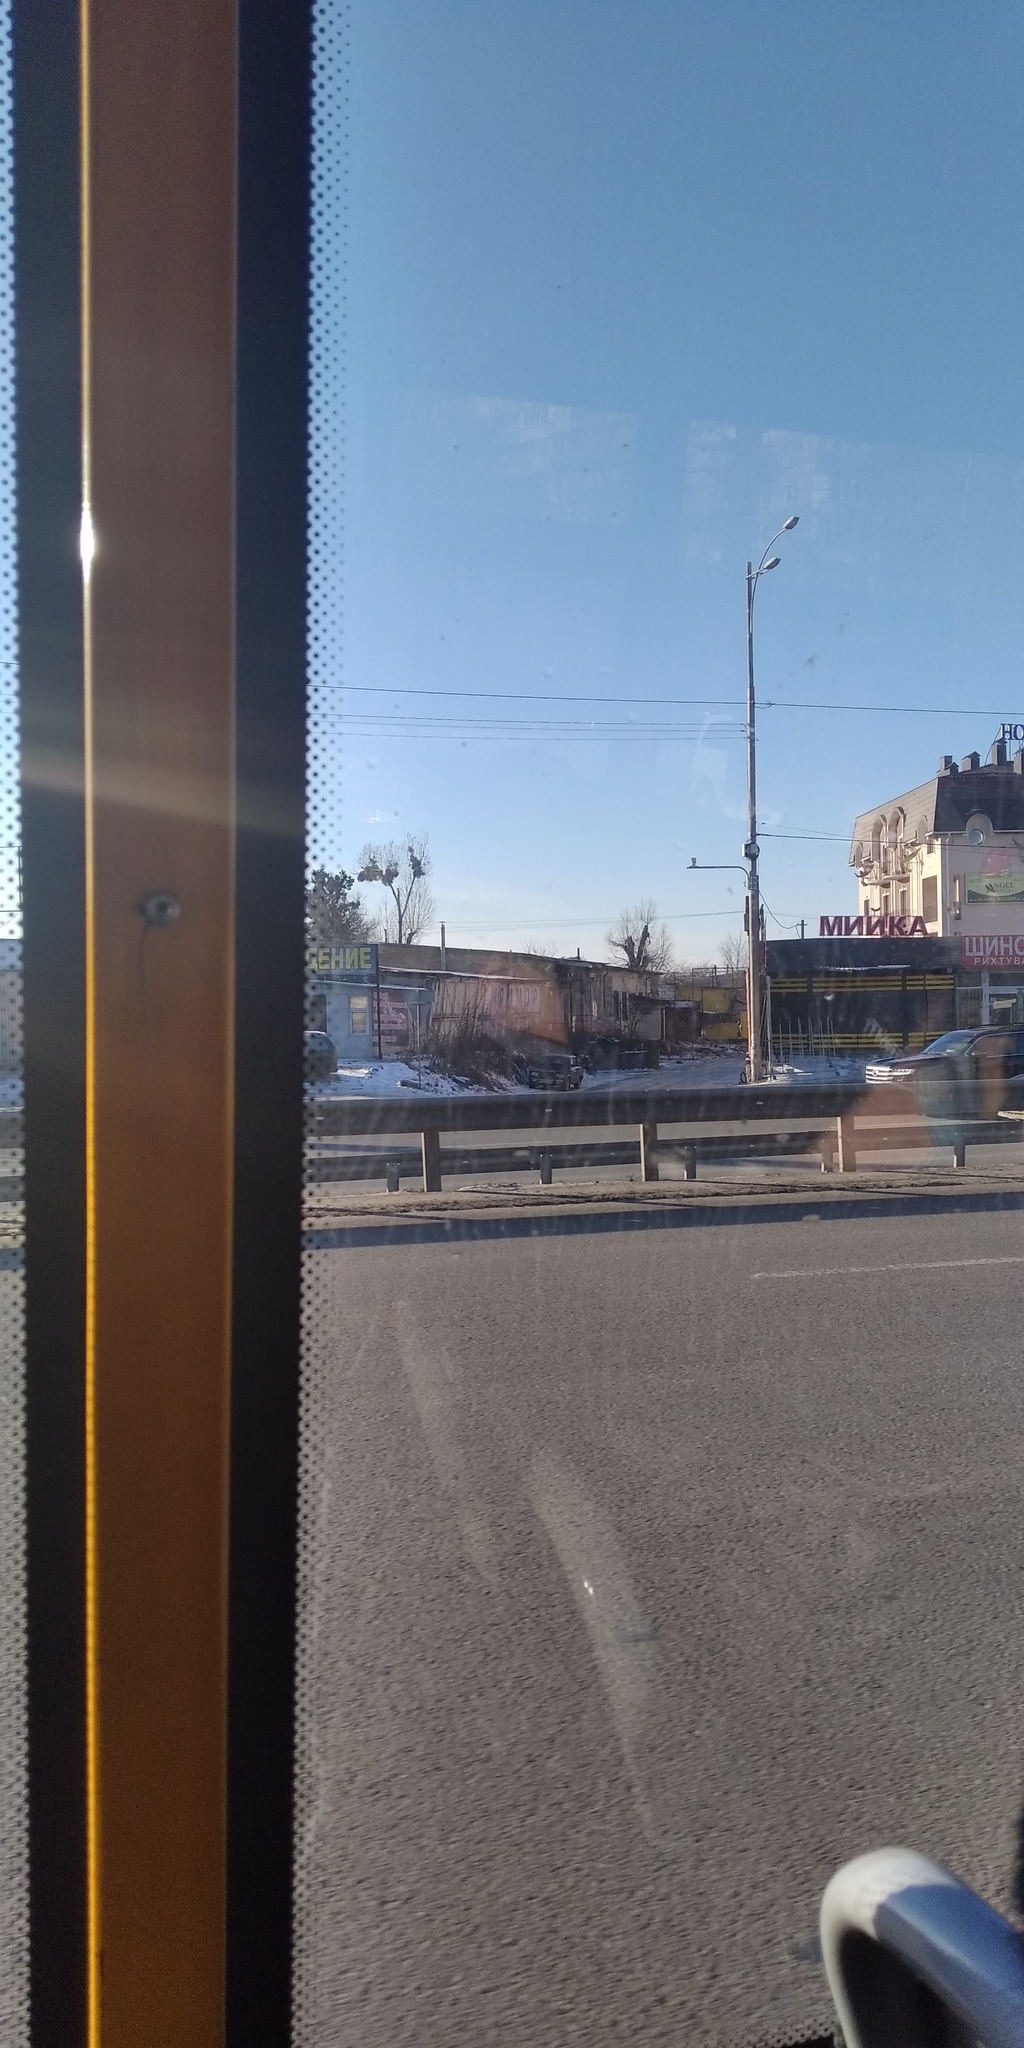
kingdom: Plantae
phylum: Tracheophyta
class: Magnoliopsida
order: Santalales
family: Viscaceae
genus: Viscum
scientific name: Viscum album
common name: Mistletoe
